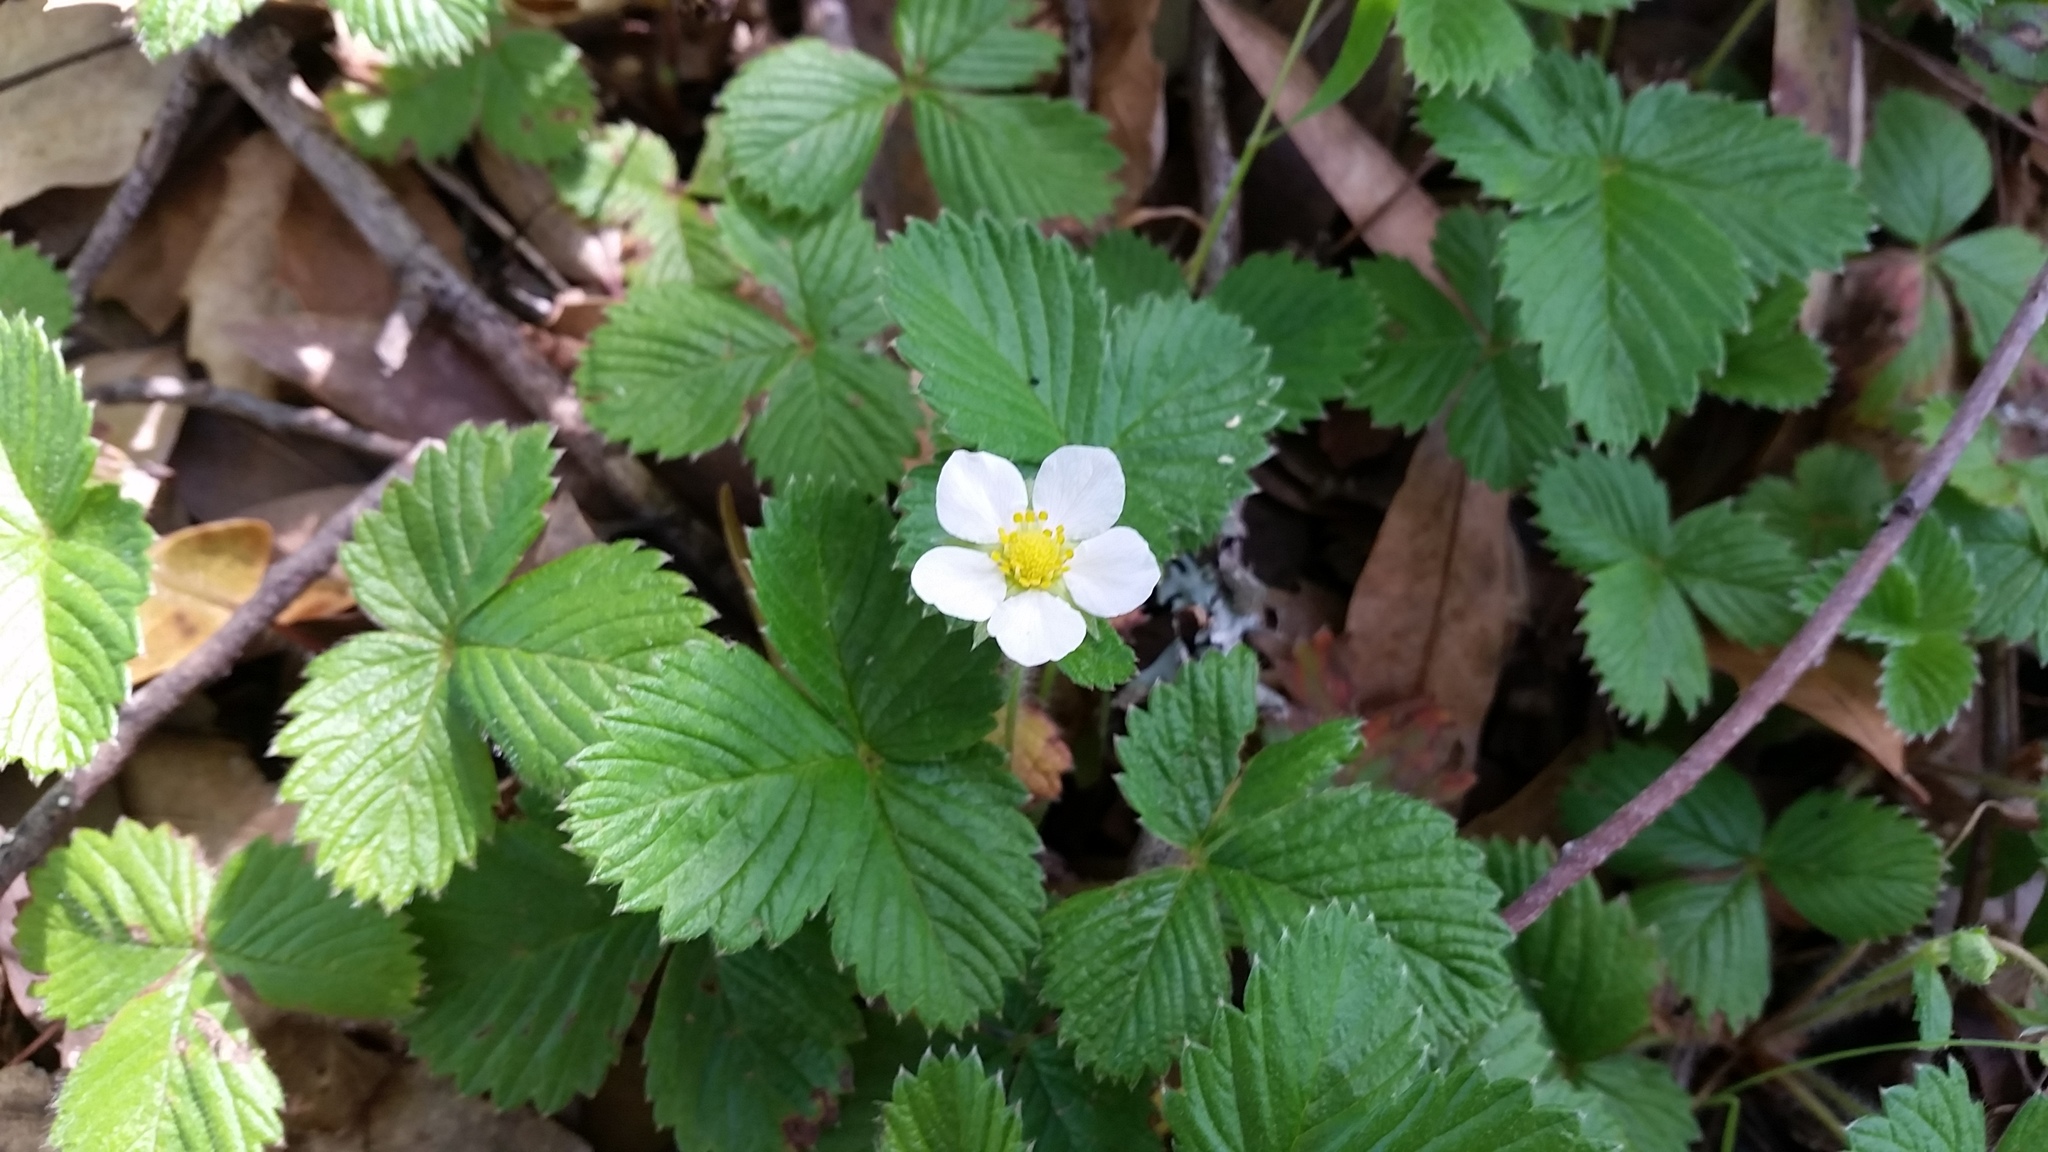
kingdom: Plantae
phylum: Tracheophyta
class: Magnoliopsida
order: Rosales
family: Rosaceae
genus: Fragaria
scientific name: Fragaria vesca
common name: Wild strawberry
